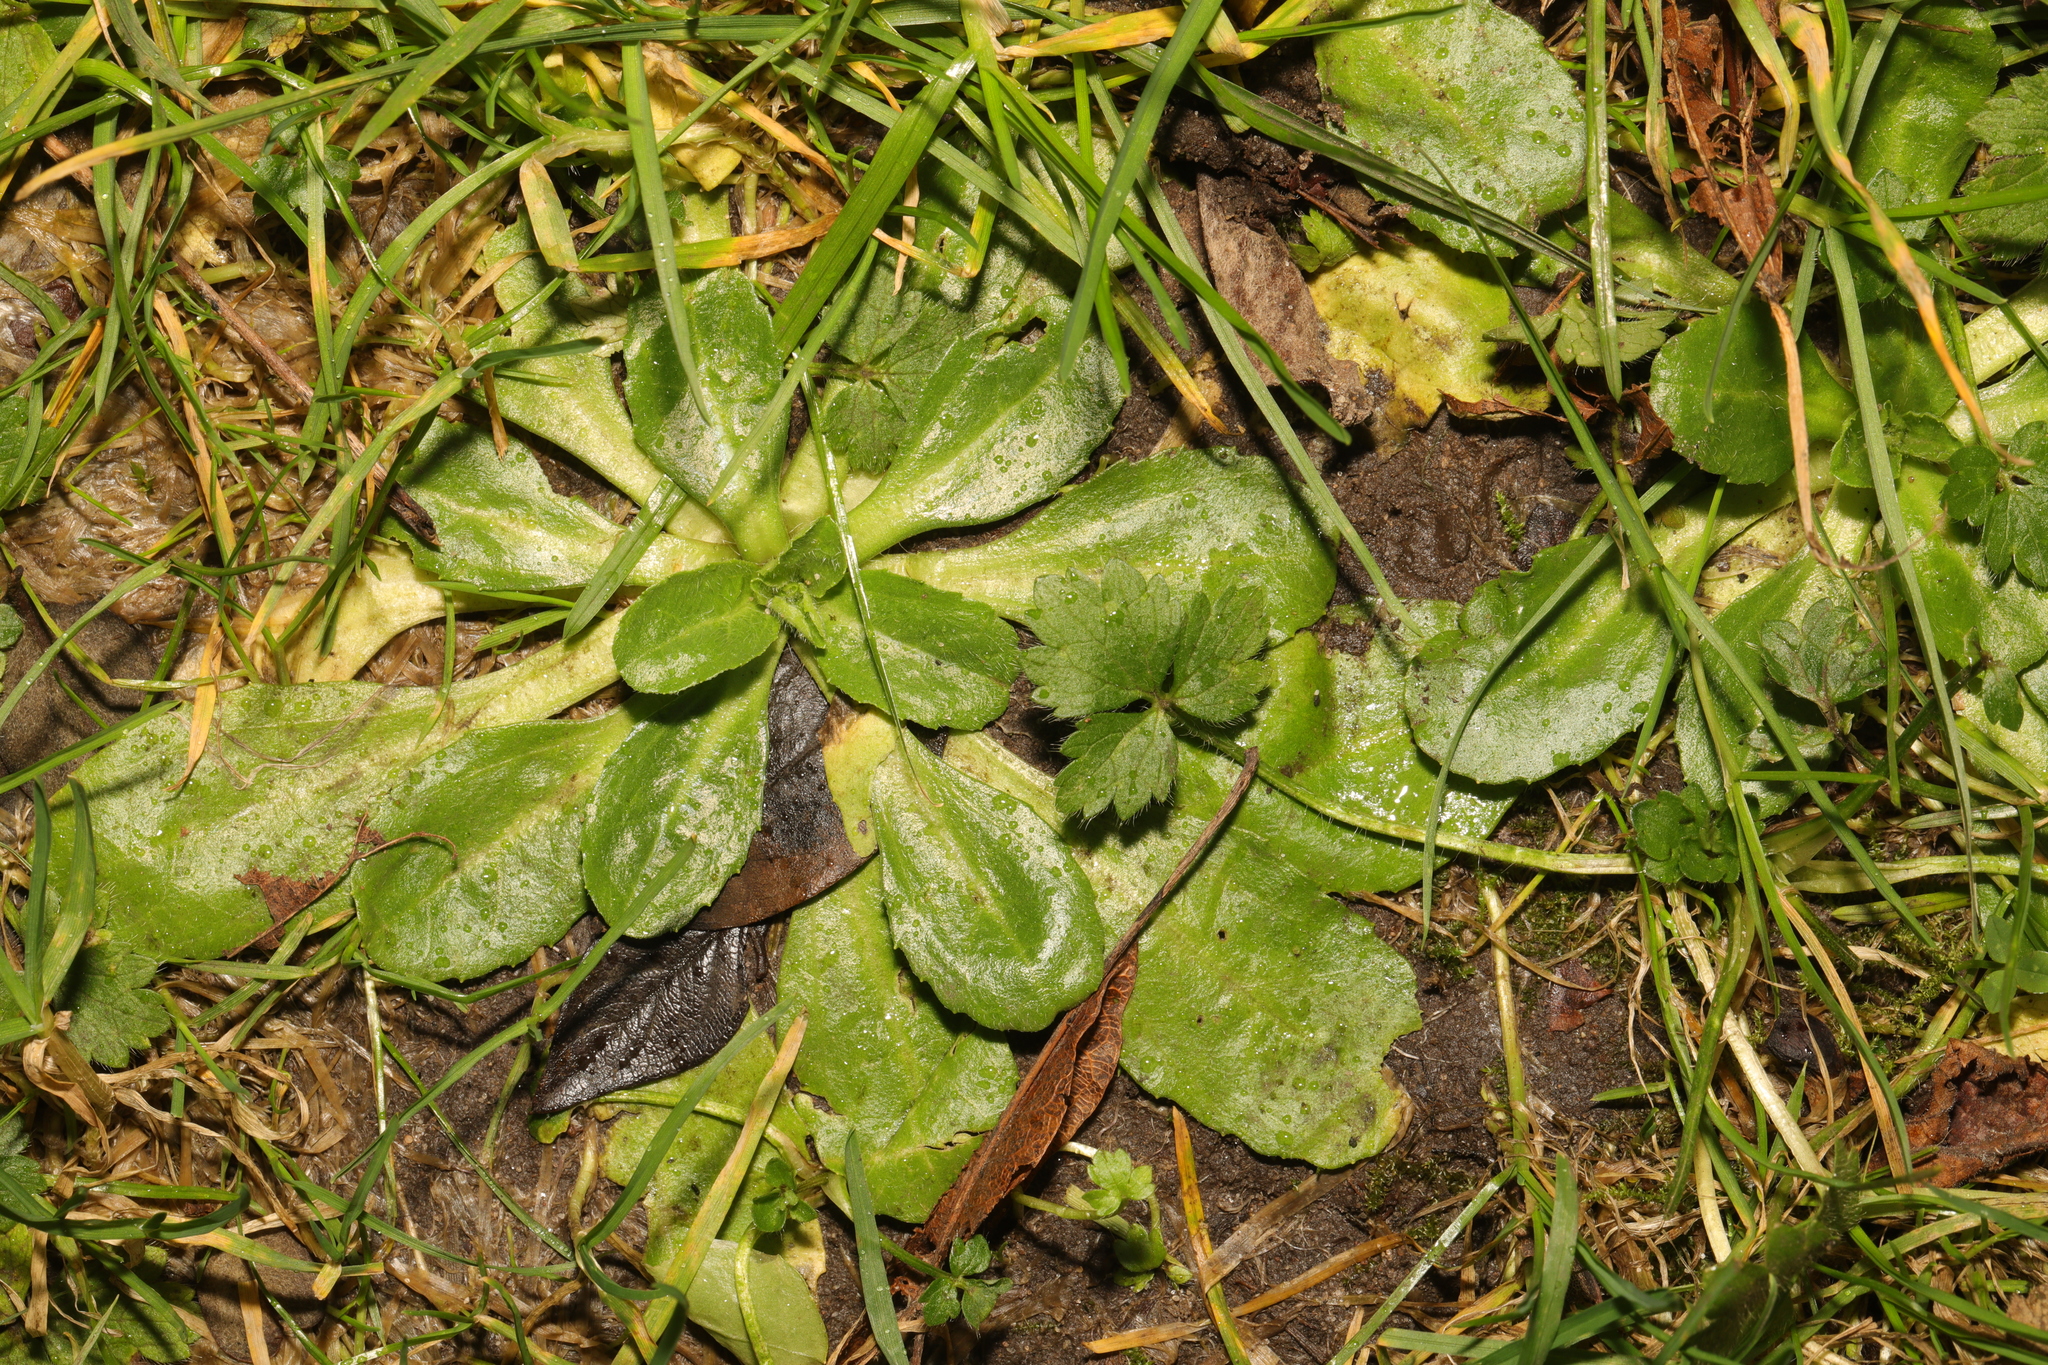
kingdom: Plantae
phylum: Tracheophyta
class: Magnoliopsida
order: Asterales
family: Asteraceae
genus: Bellis
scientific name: Bellis perennis
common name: Lawndaisy
